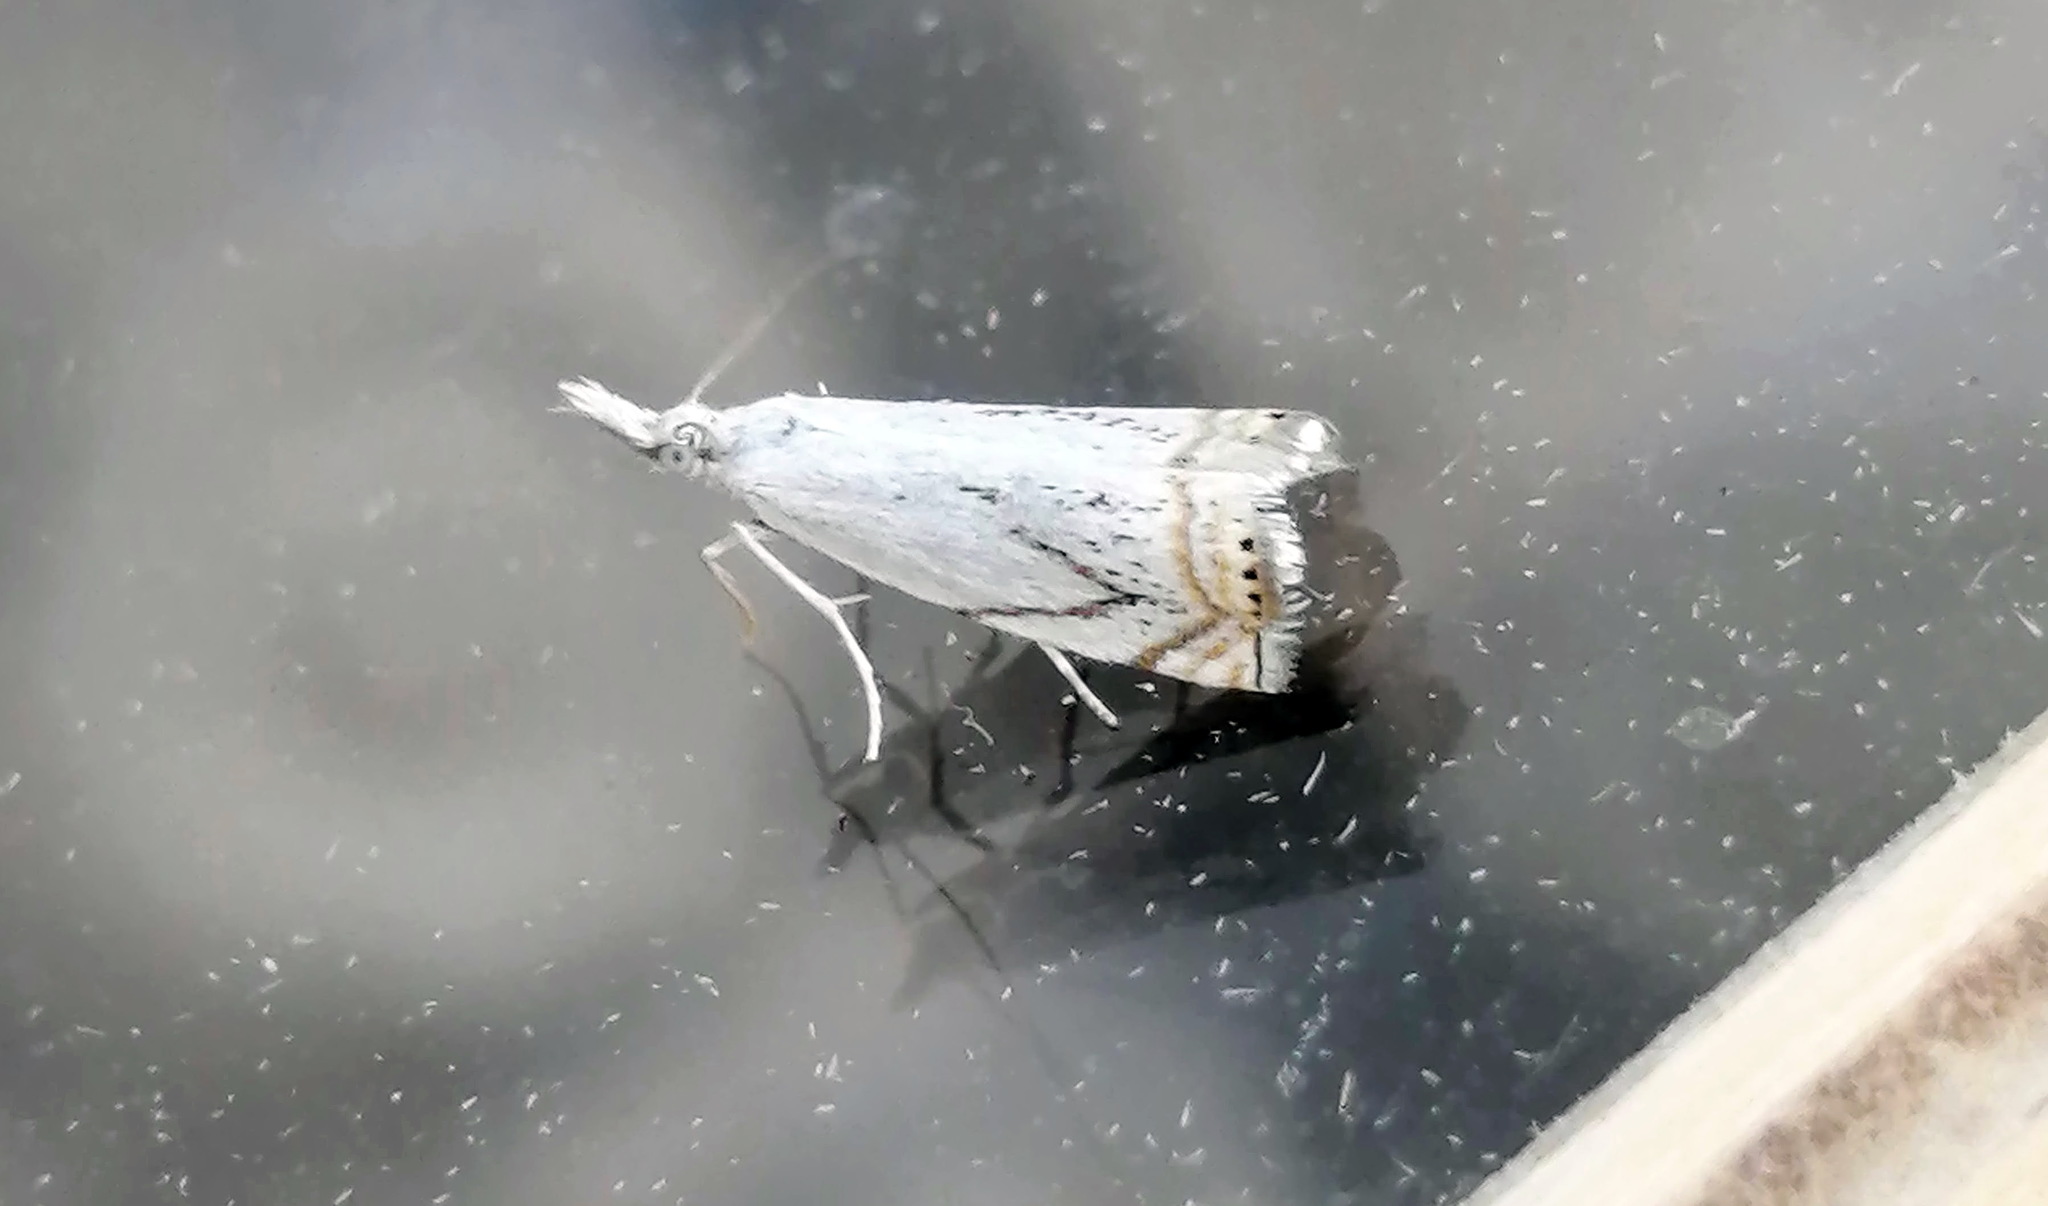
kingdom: Animalia
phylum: Arthropoda
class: Insecta
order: Lepidoptera
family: Crambidae
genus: Crambus
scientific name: Crambus albellus
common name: Small white grass-veneer
